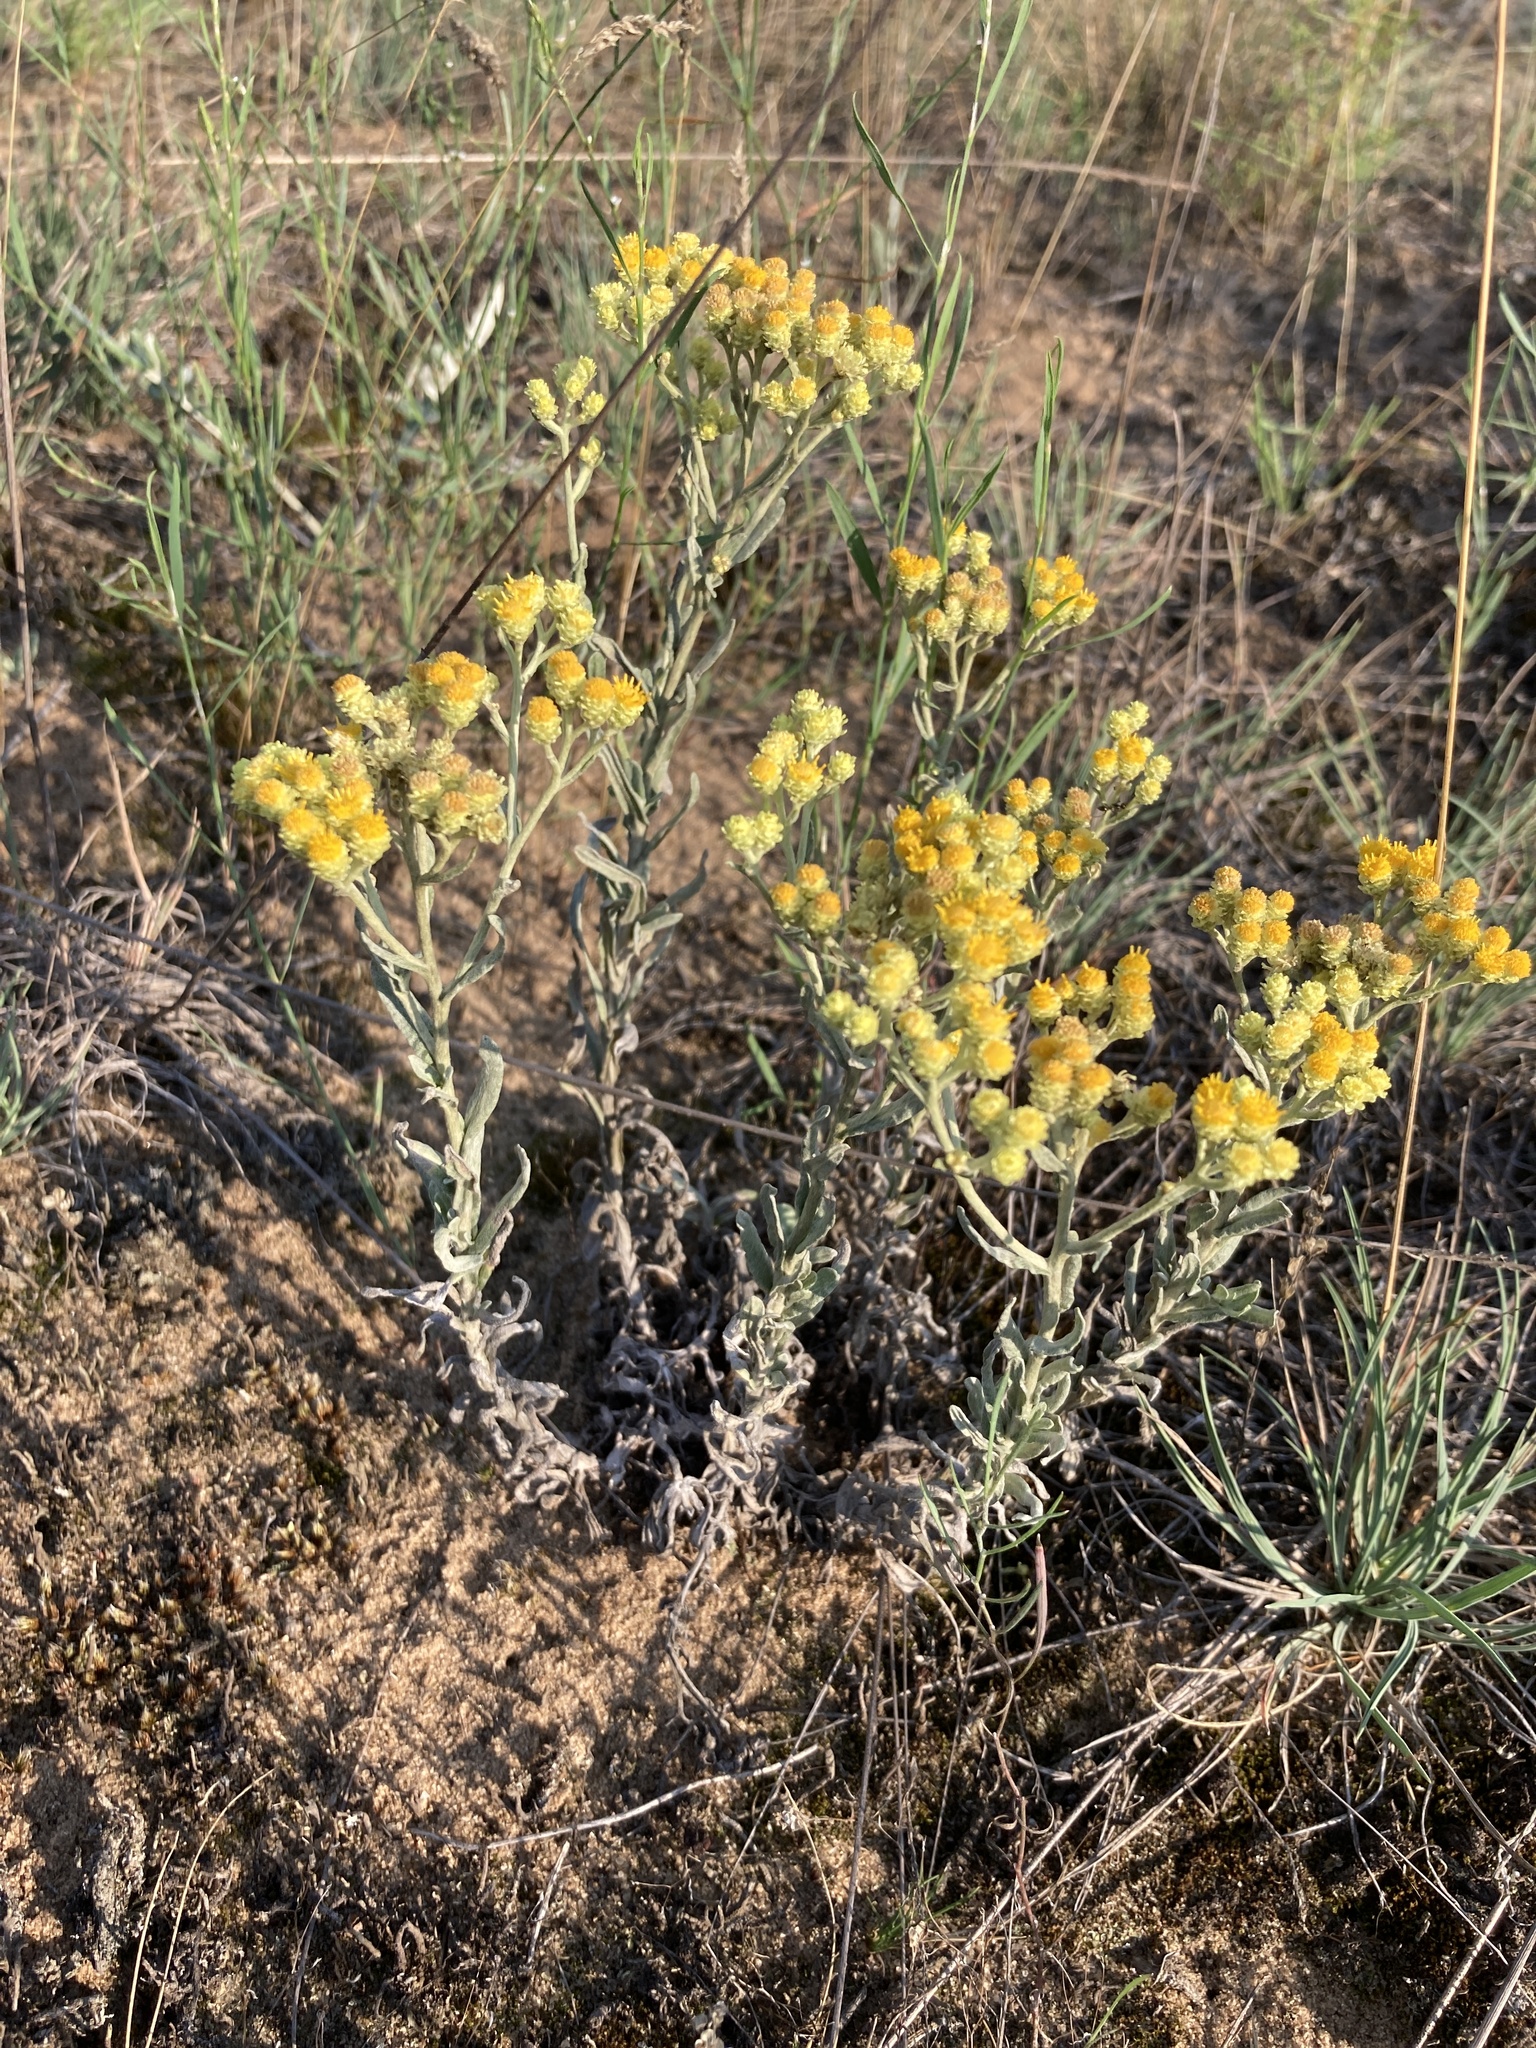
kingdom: Plantae
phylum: Tracheophyta
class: Magnoliopsida
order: Asterales
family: Asteraceae
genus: Helichrysum
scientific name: Helichrysum arenarium
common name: Strawflower
